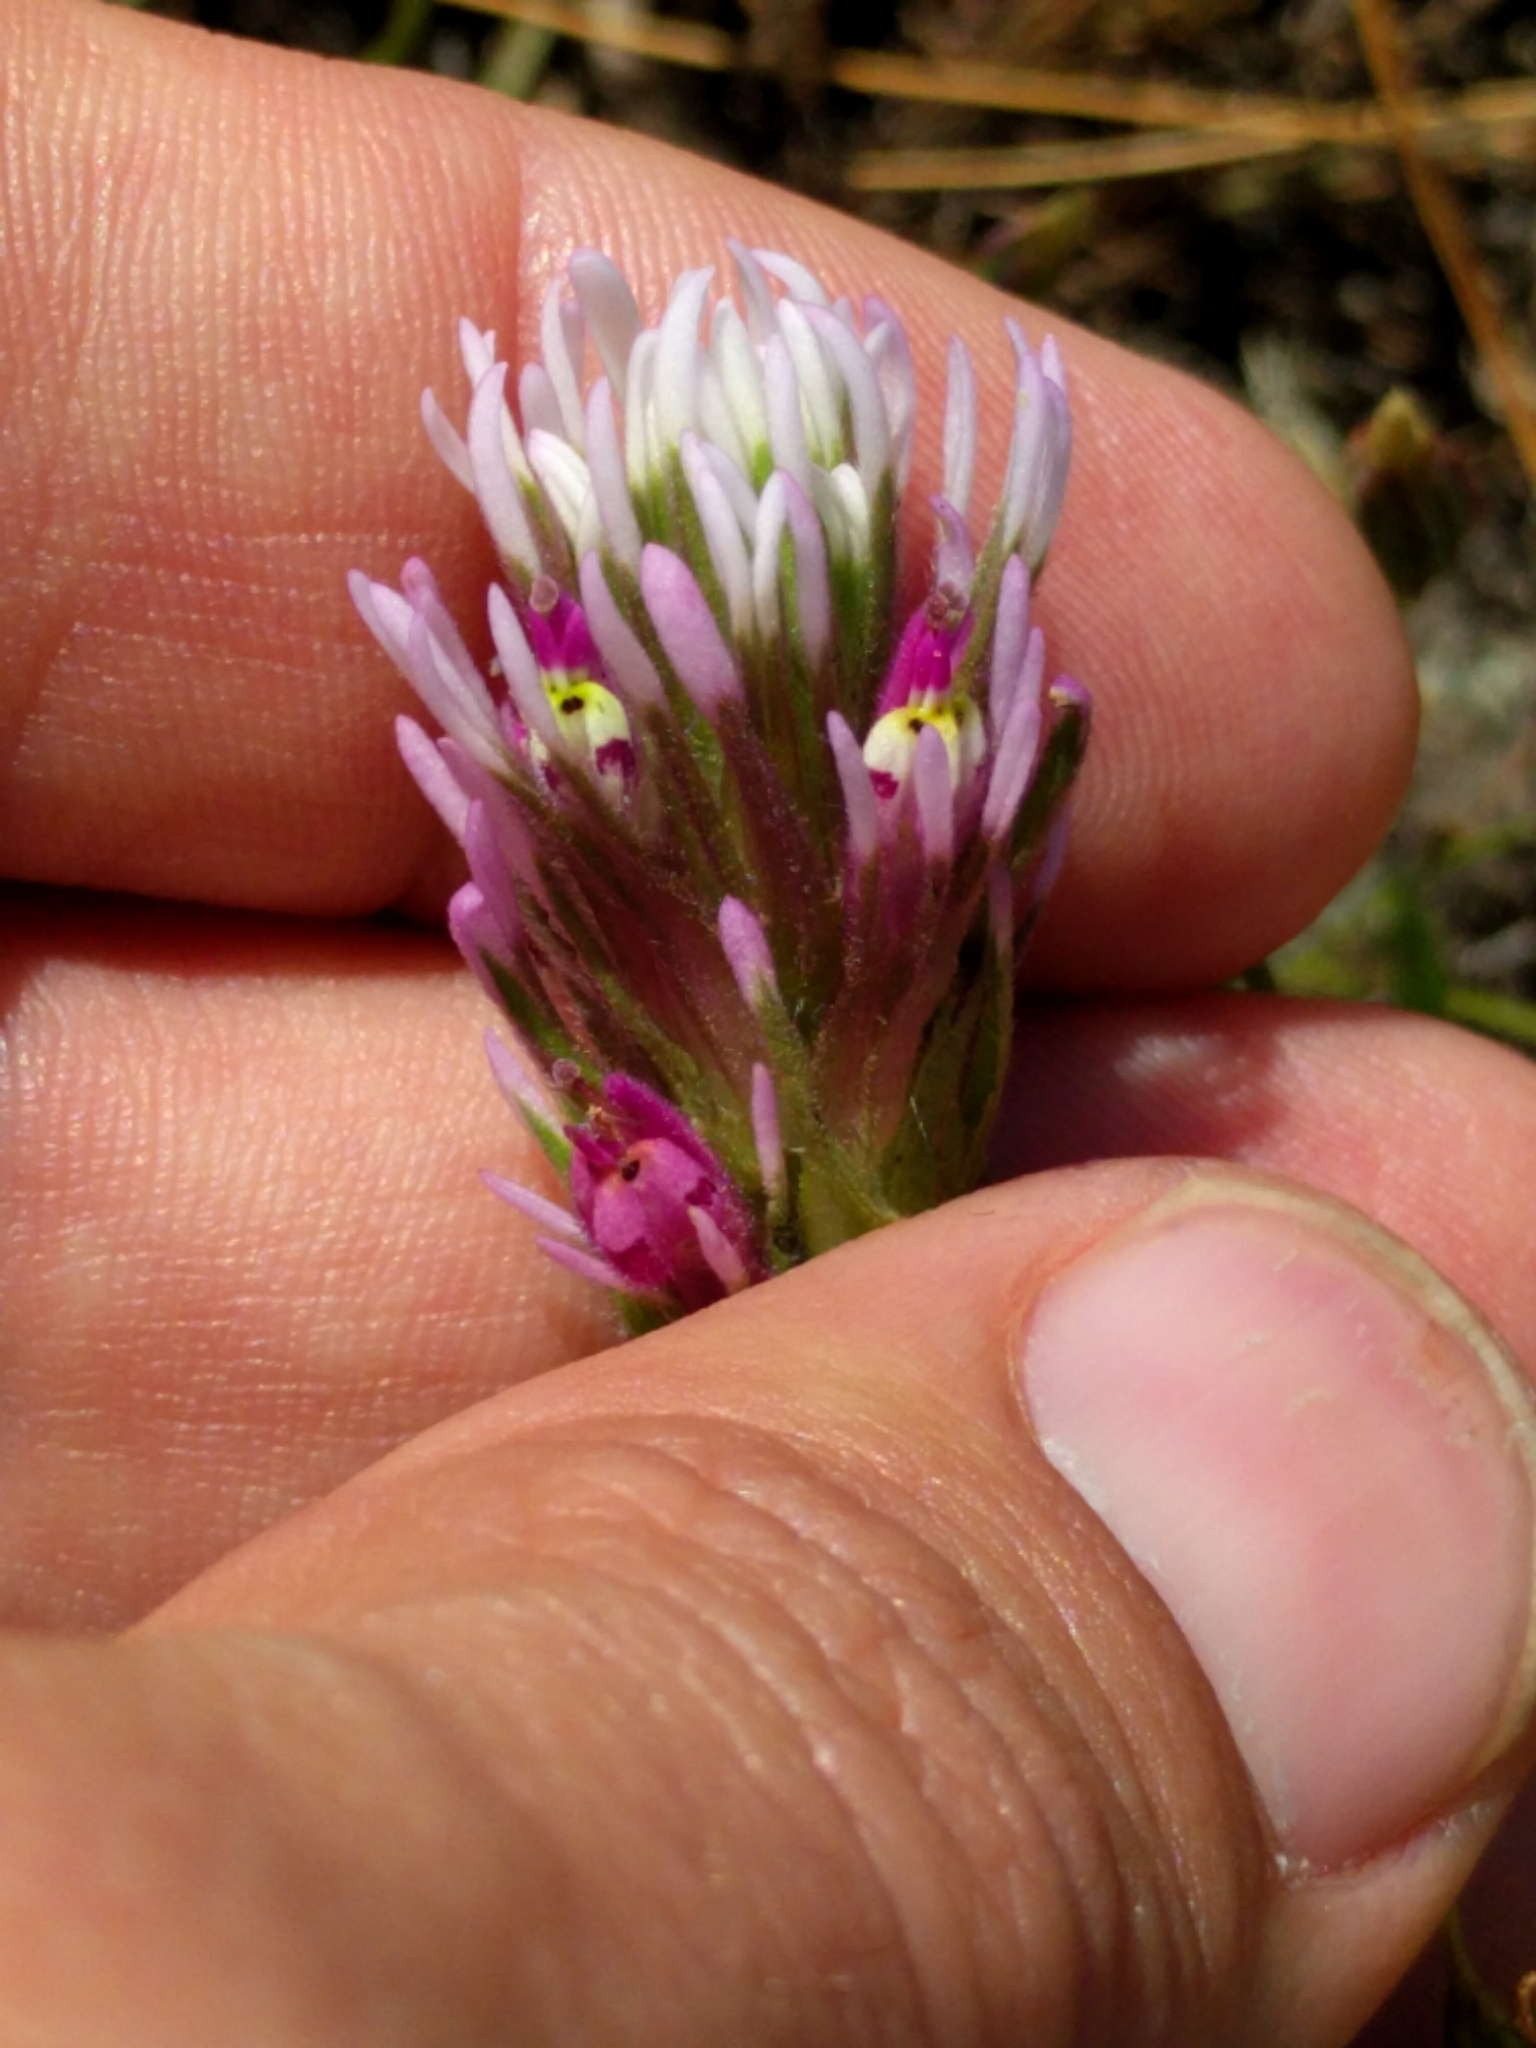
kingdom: Plantae
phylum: Tracheophyta
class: Magnoliopsida
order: Lamiales
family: Orobanchaceae
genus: Castilleja
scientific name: Castilleja densiflora
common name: Dense-flower indian paintbrush
